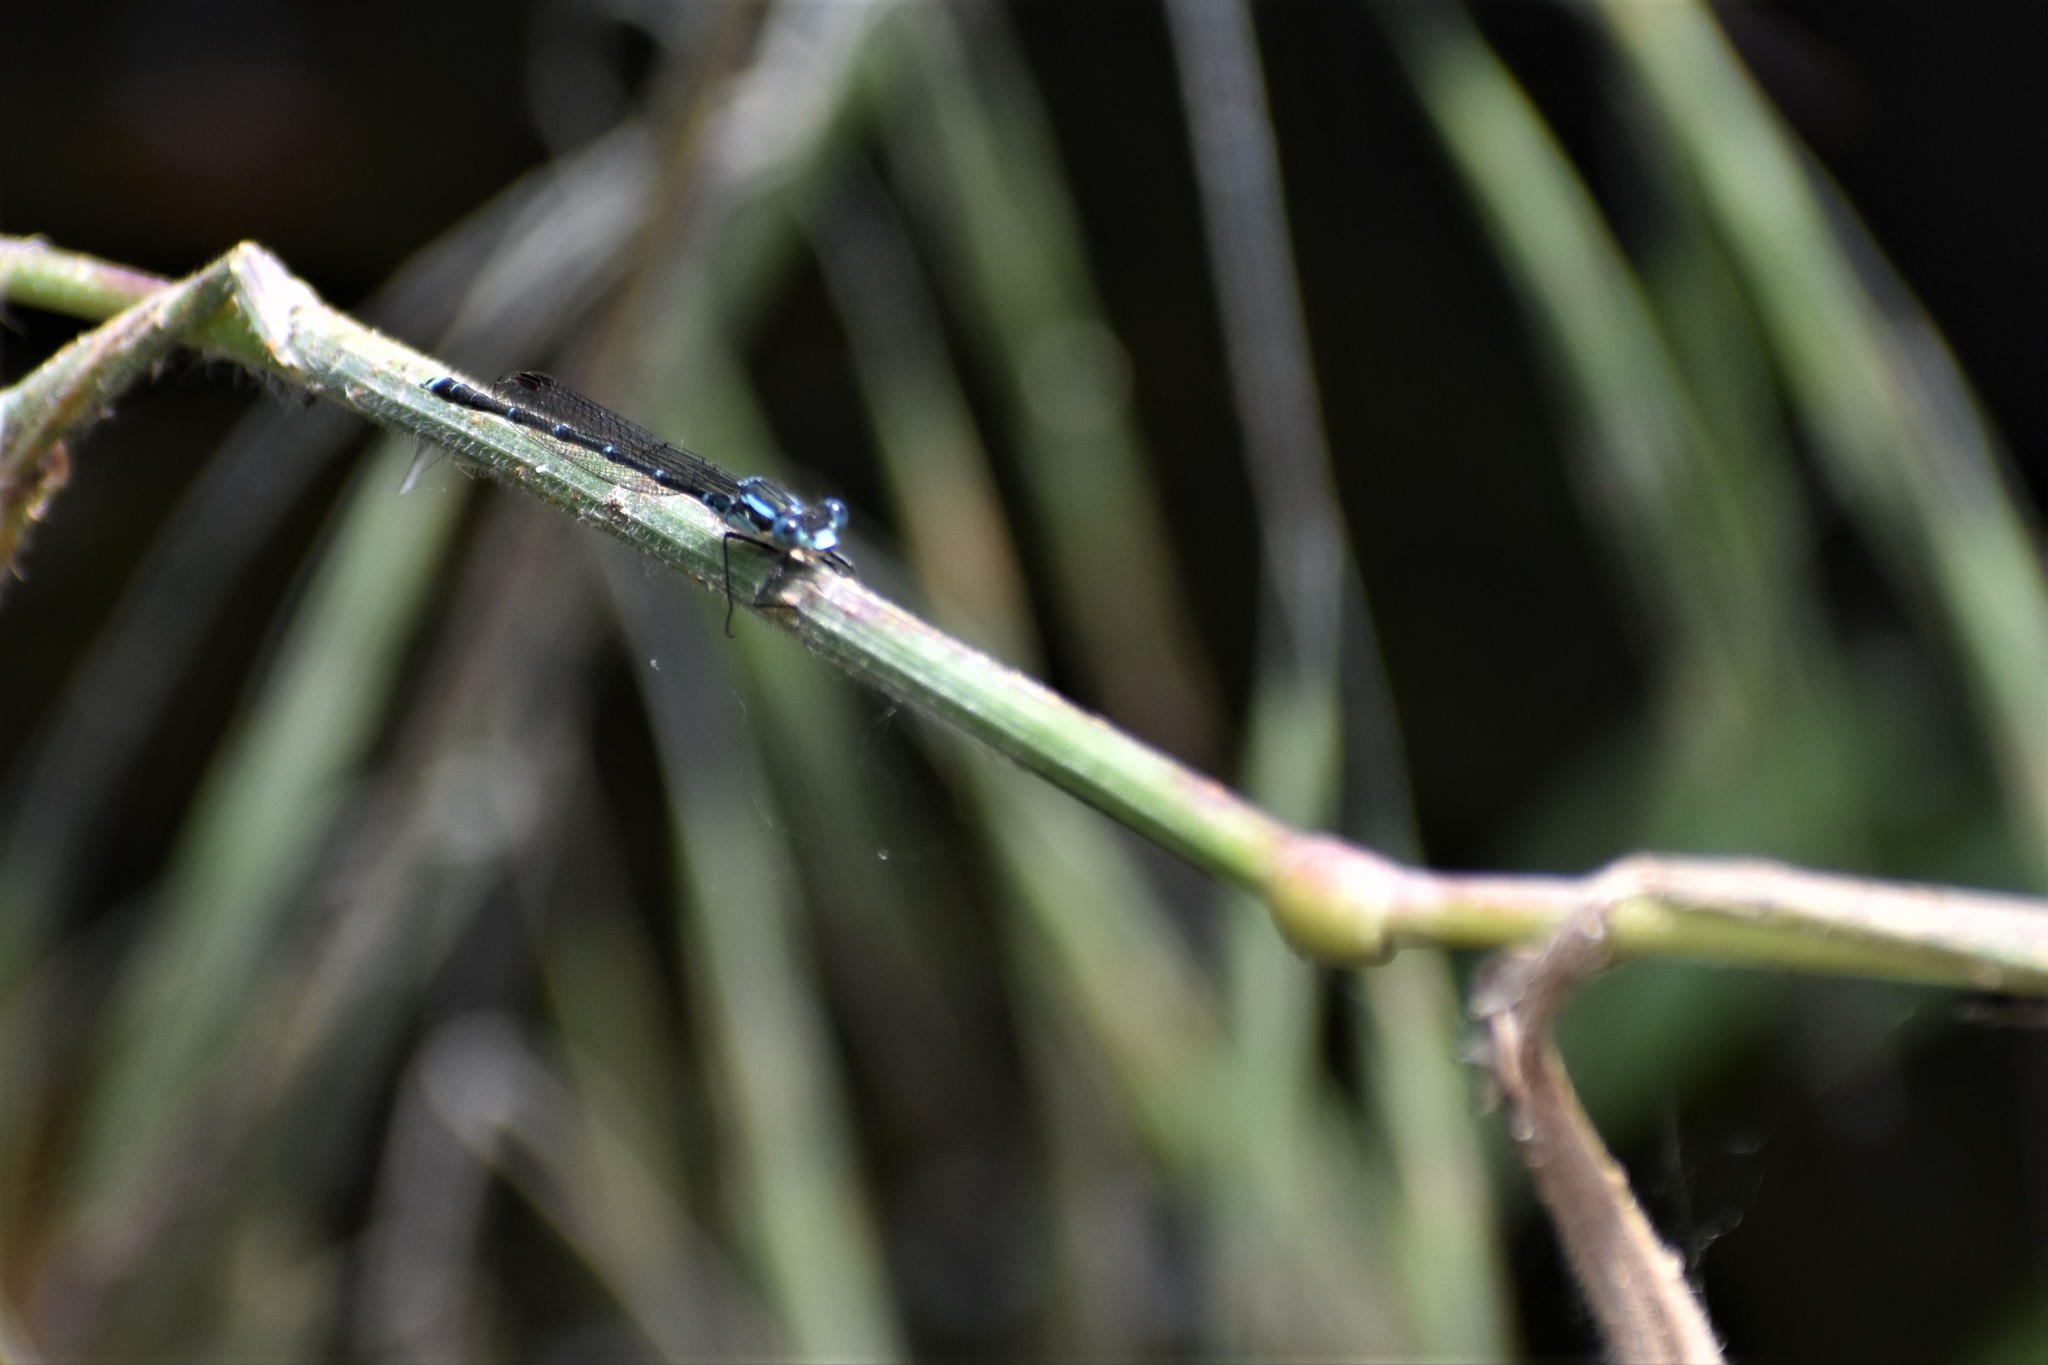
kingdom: Animalia
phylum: Arthropoda
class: Insecta
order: Odonata
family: Lestidae
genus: Austrolestes
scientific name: Austrolestes colensonis
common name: Blue damselfly
